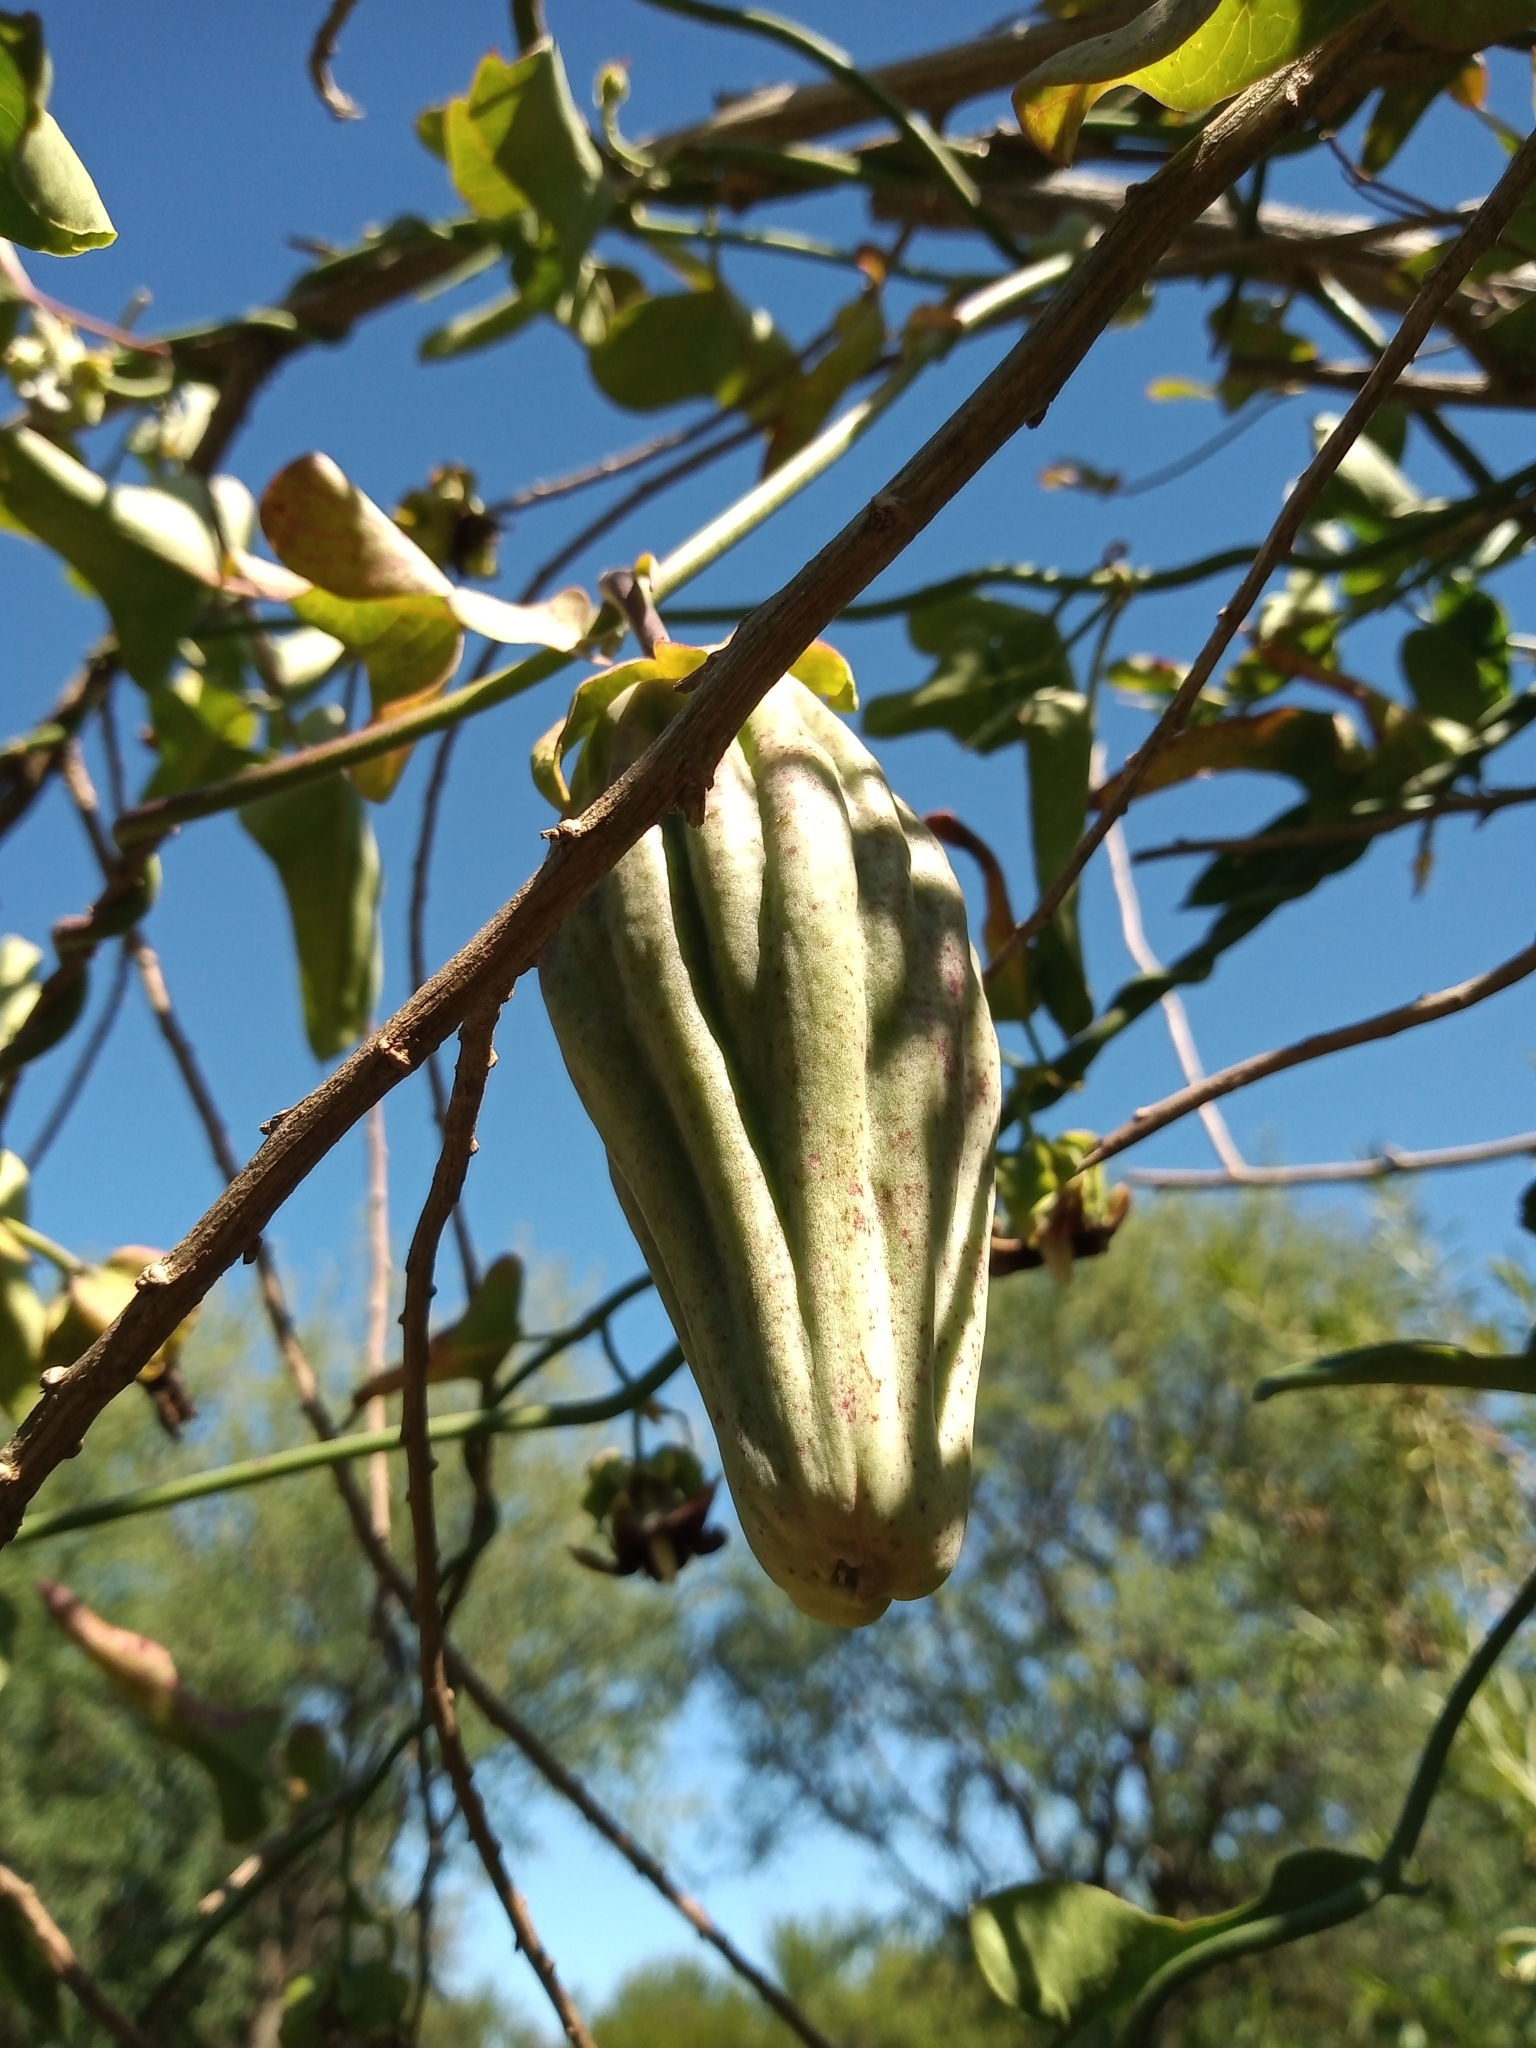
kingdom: Plantae
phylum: Tracheophyta
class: Magnoliopsida
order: Gentianales
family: Apocynaceae
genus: Araujia
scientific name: Araujia megapotamica
